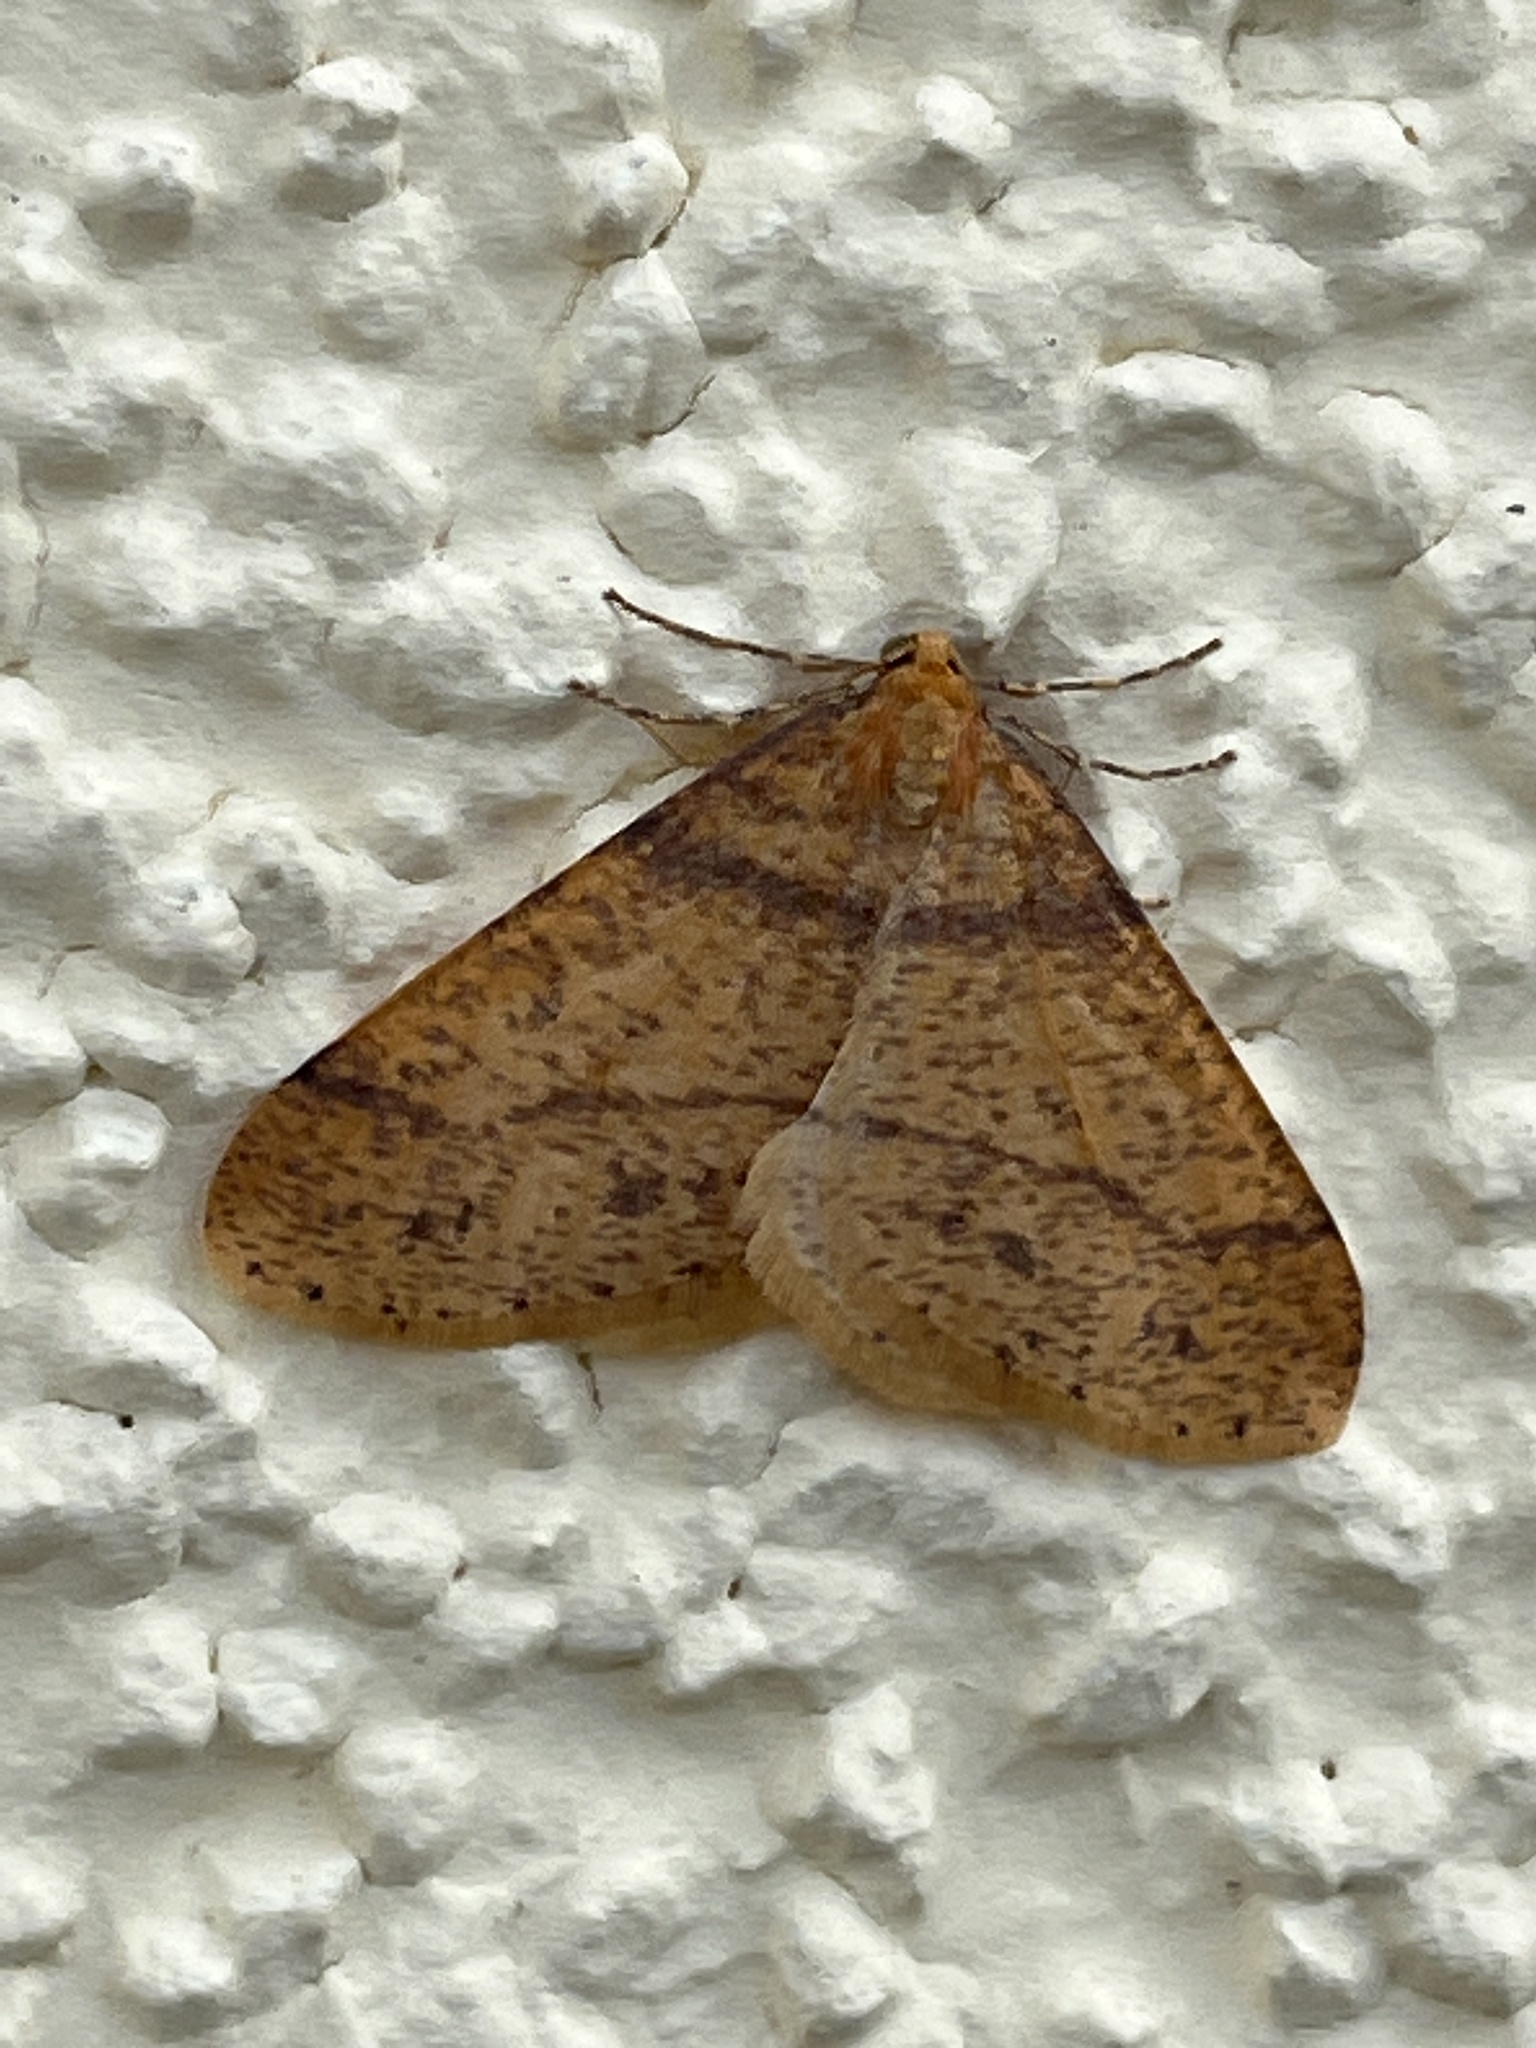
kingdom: Animalia
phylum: Arthropoda
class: Insecta
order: Lepidoptera
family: Geometridae
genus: Agriopis
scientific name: Agriopis aurantiaria
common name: Scarce umber
